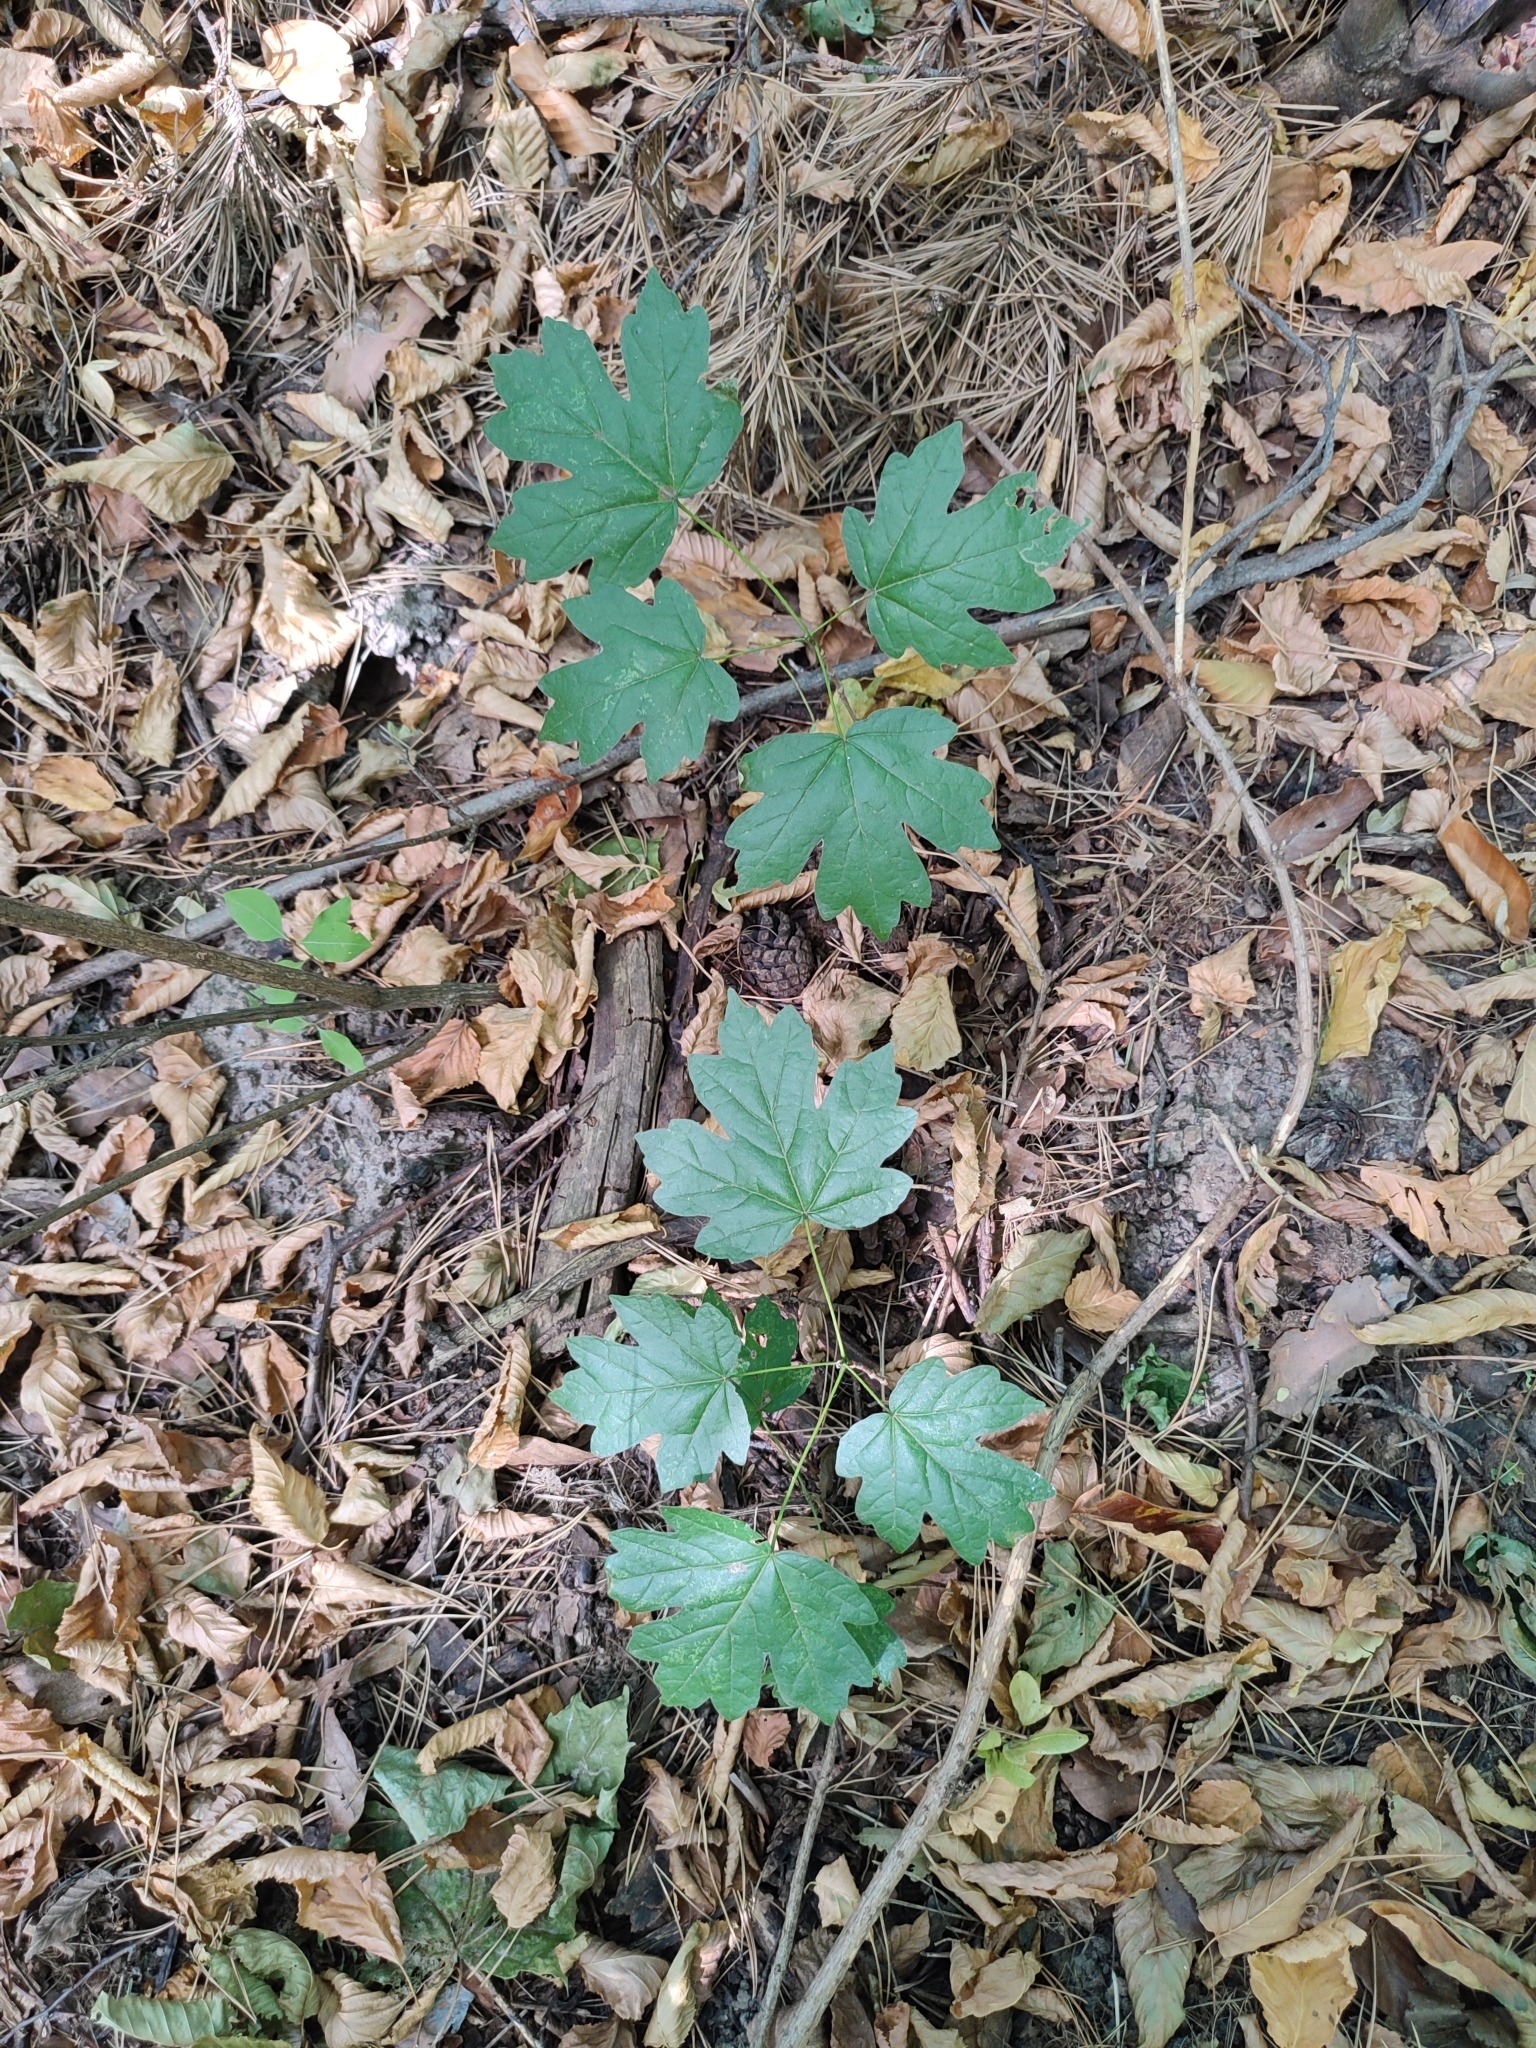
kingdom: Plantae
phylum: Tracheophyta
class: Magnoliopsida
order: Sapindales
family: Sapindaceae
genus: Acer
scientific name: Acer campestre
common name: Field maple
